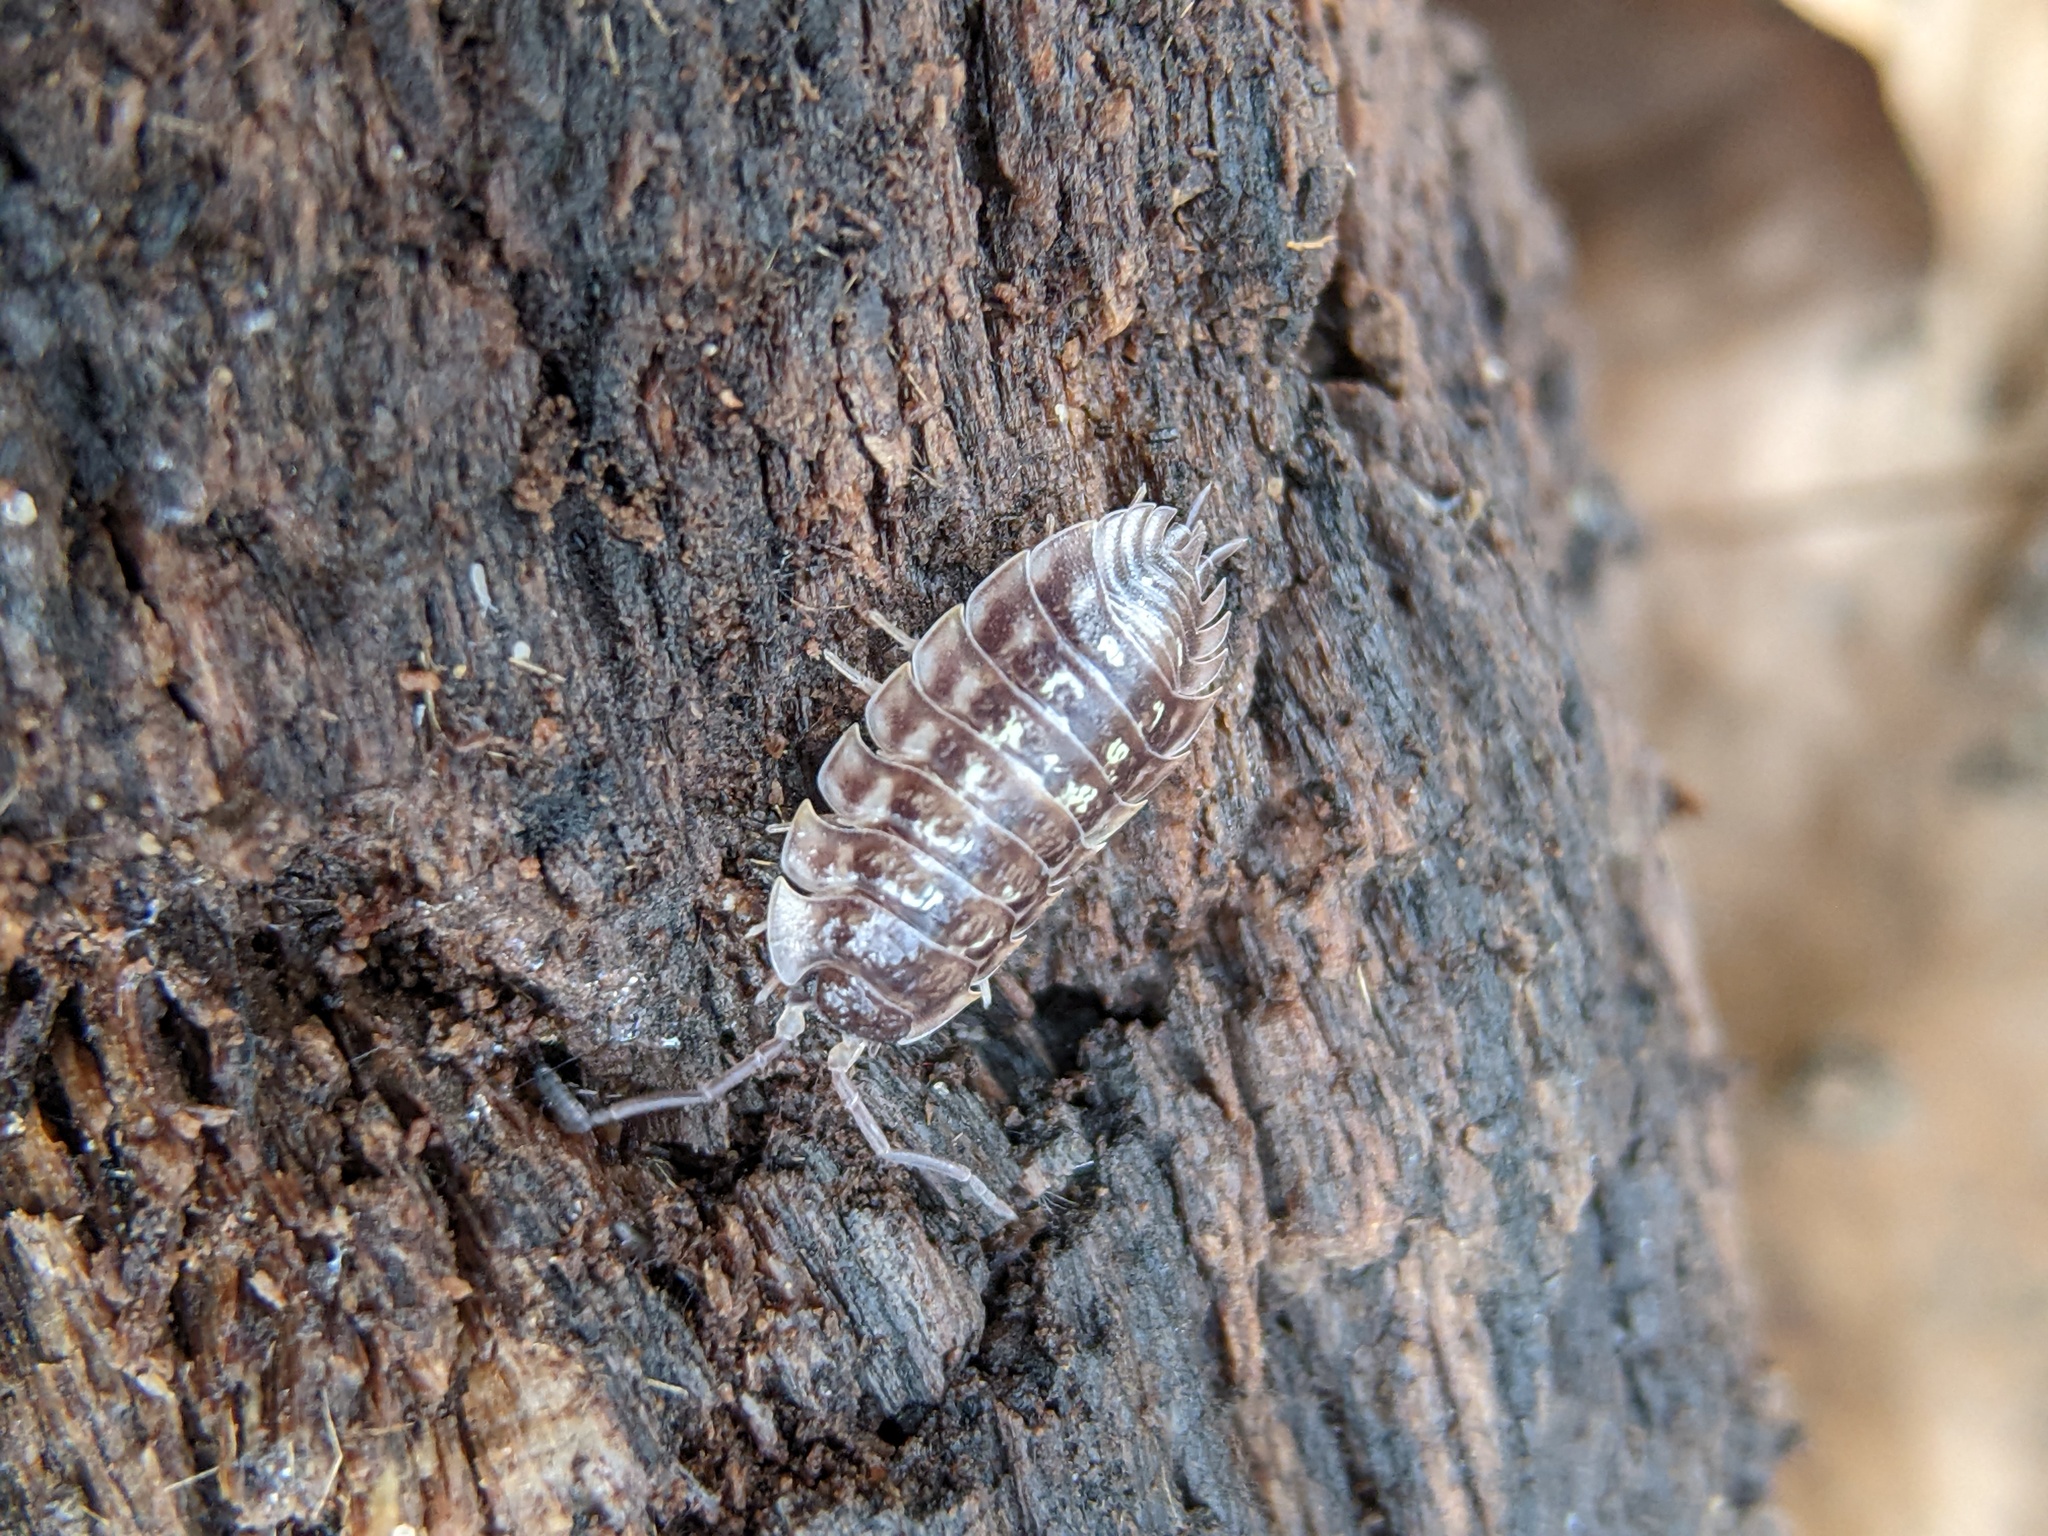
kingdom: Animalia
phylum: Arthropoda
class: Malacostraca
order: Isopoda
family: Oniscidae
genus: Oniscus
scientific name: Oniscus asellus
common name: Common shiny woodlouse
